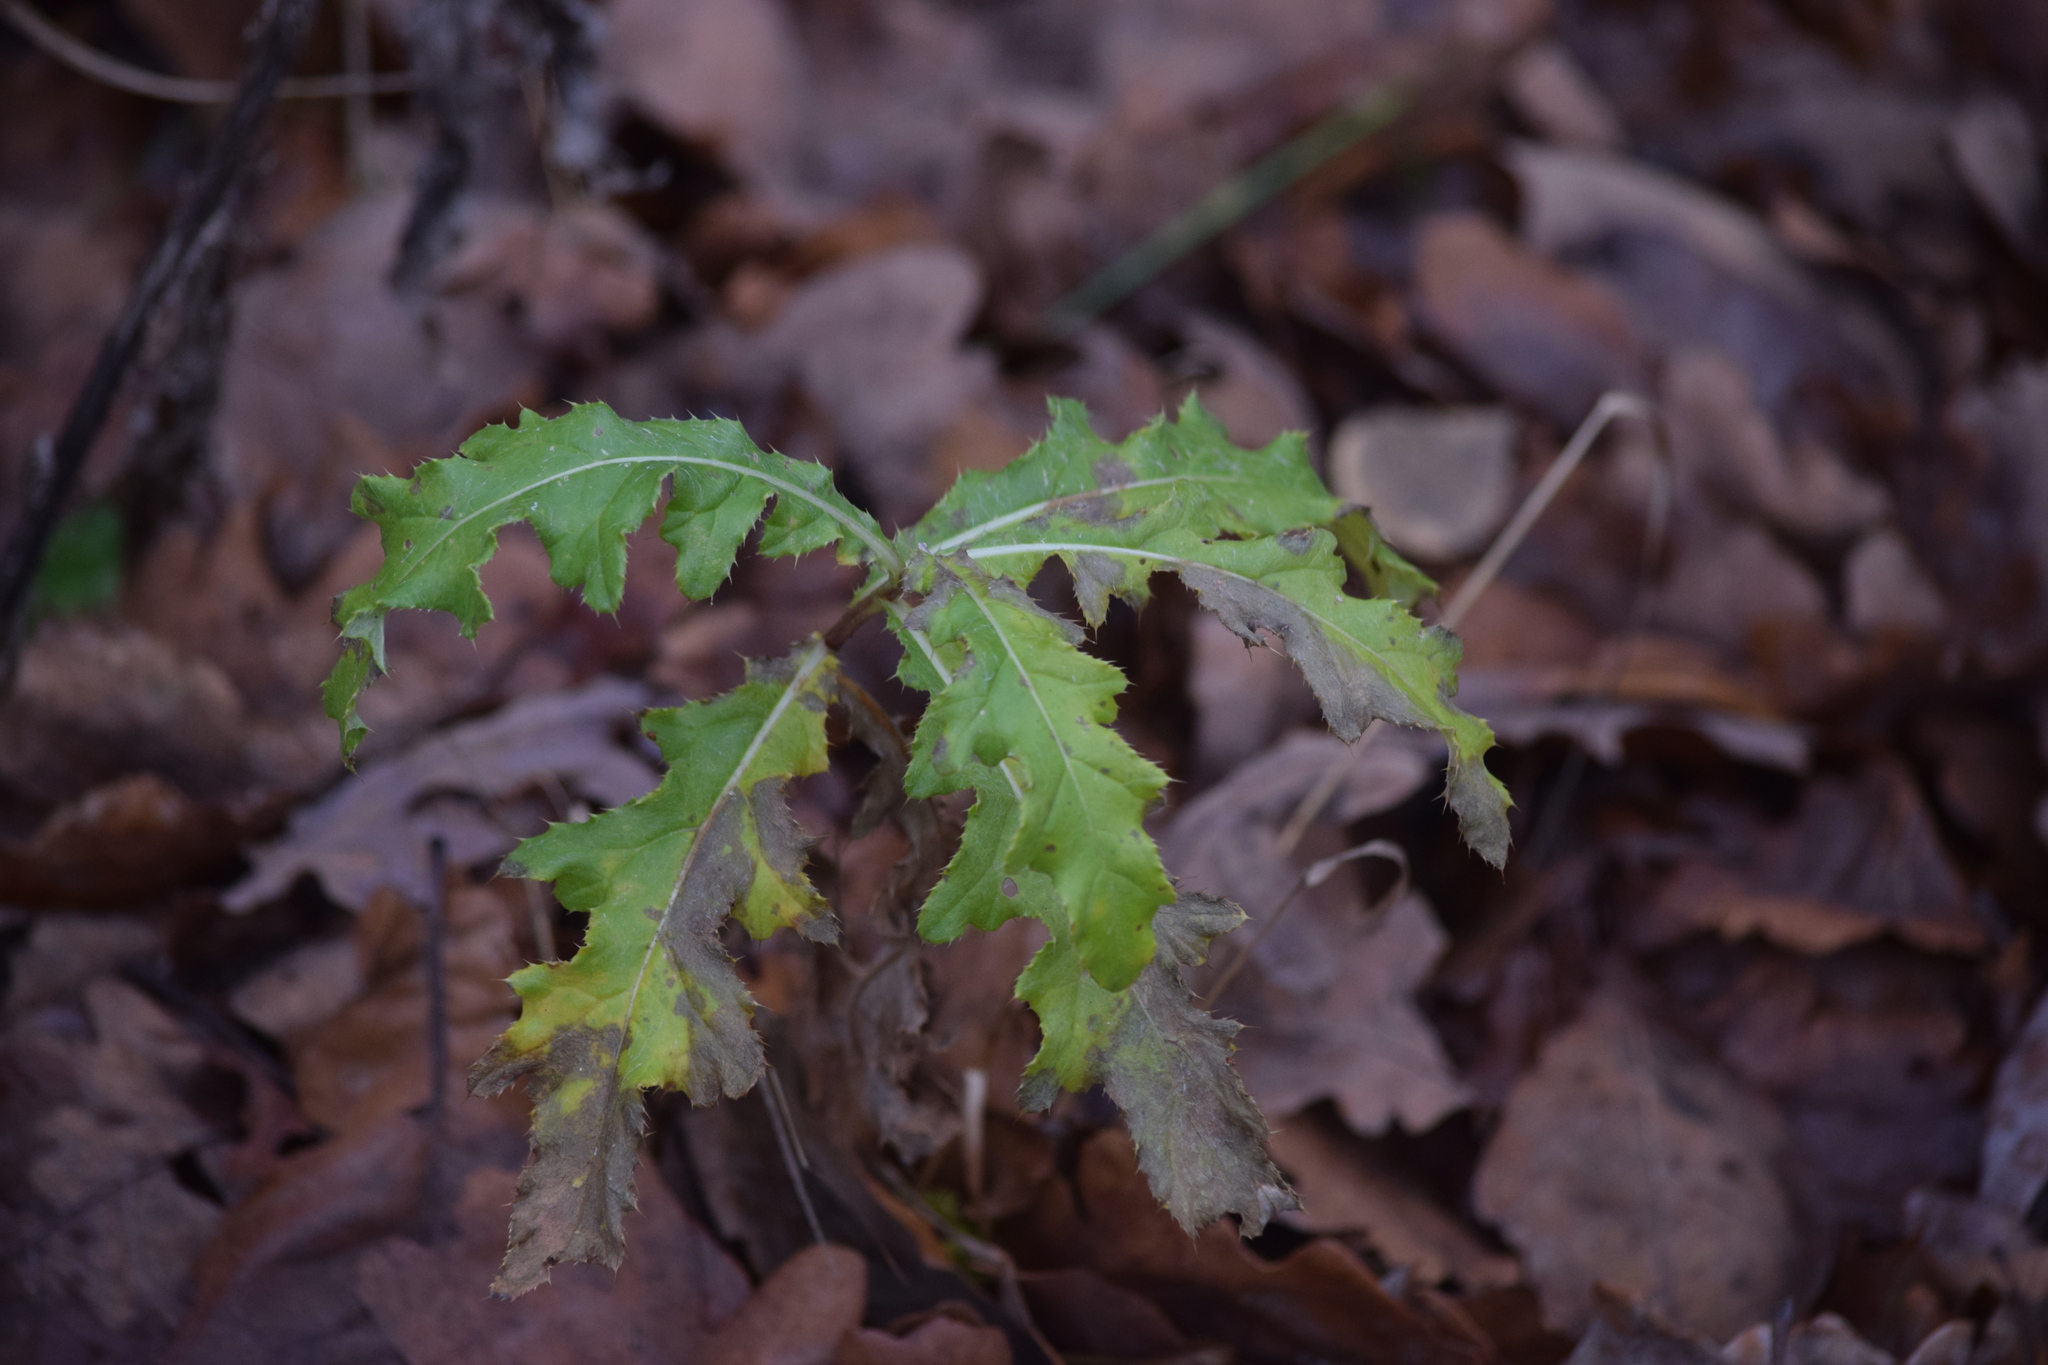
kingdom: Plantae
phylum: Tracheophyta
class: Magnoliopsida
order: Asterales
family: Asteraceae
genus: Cirsium
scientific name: Cirsium arvense
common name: Creeping thistle
